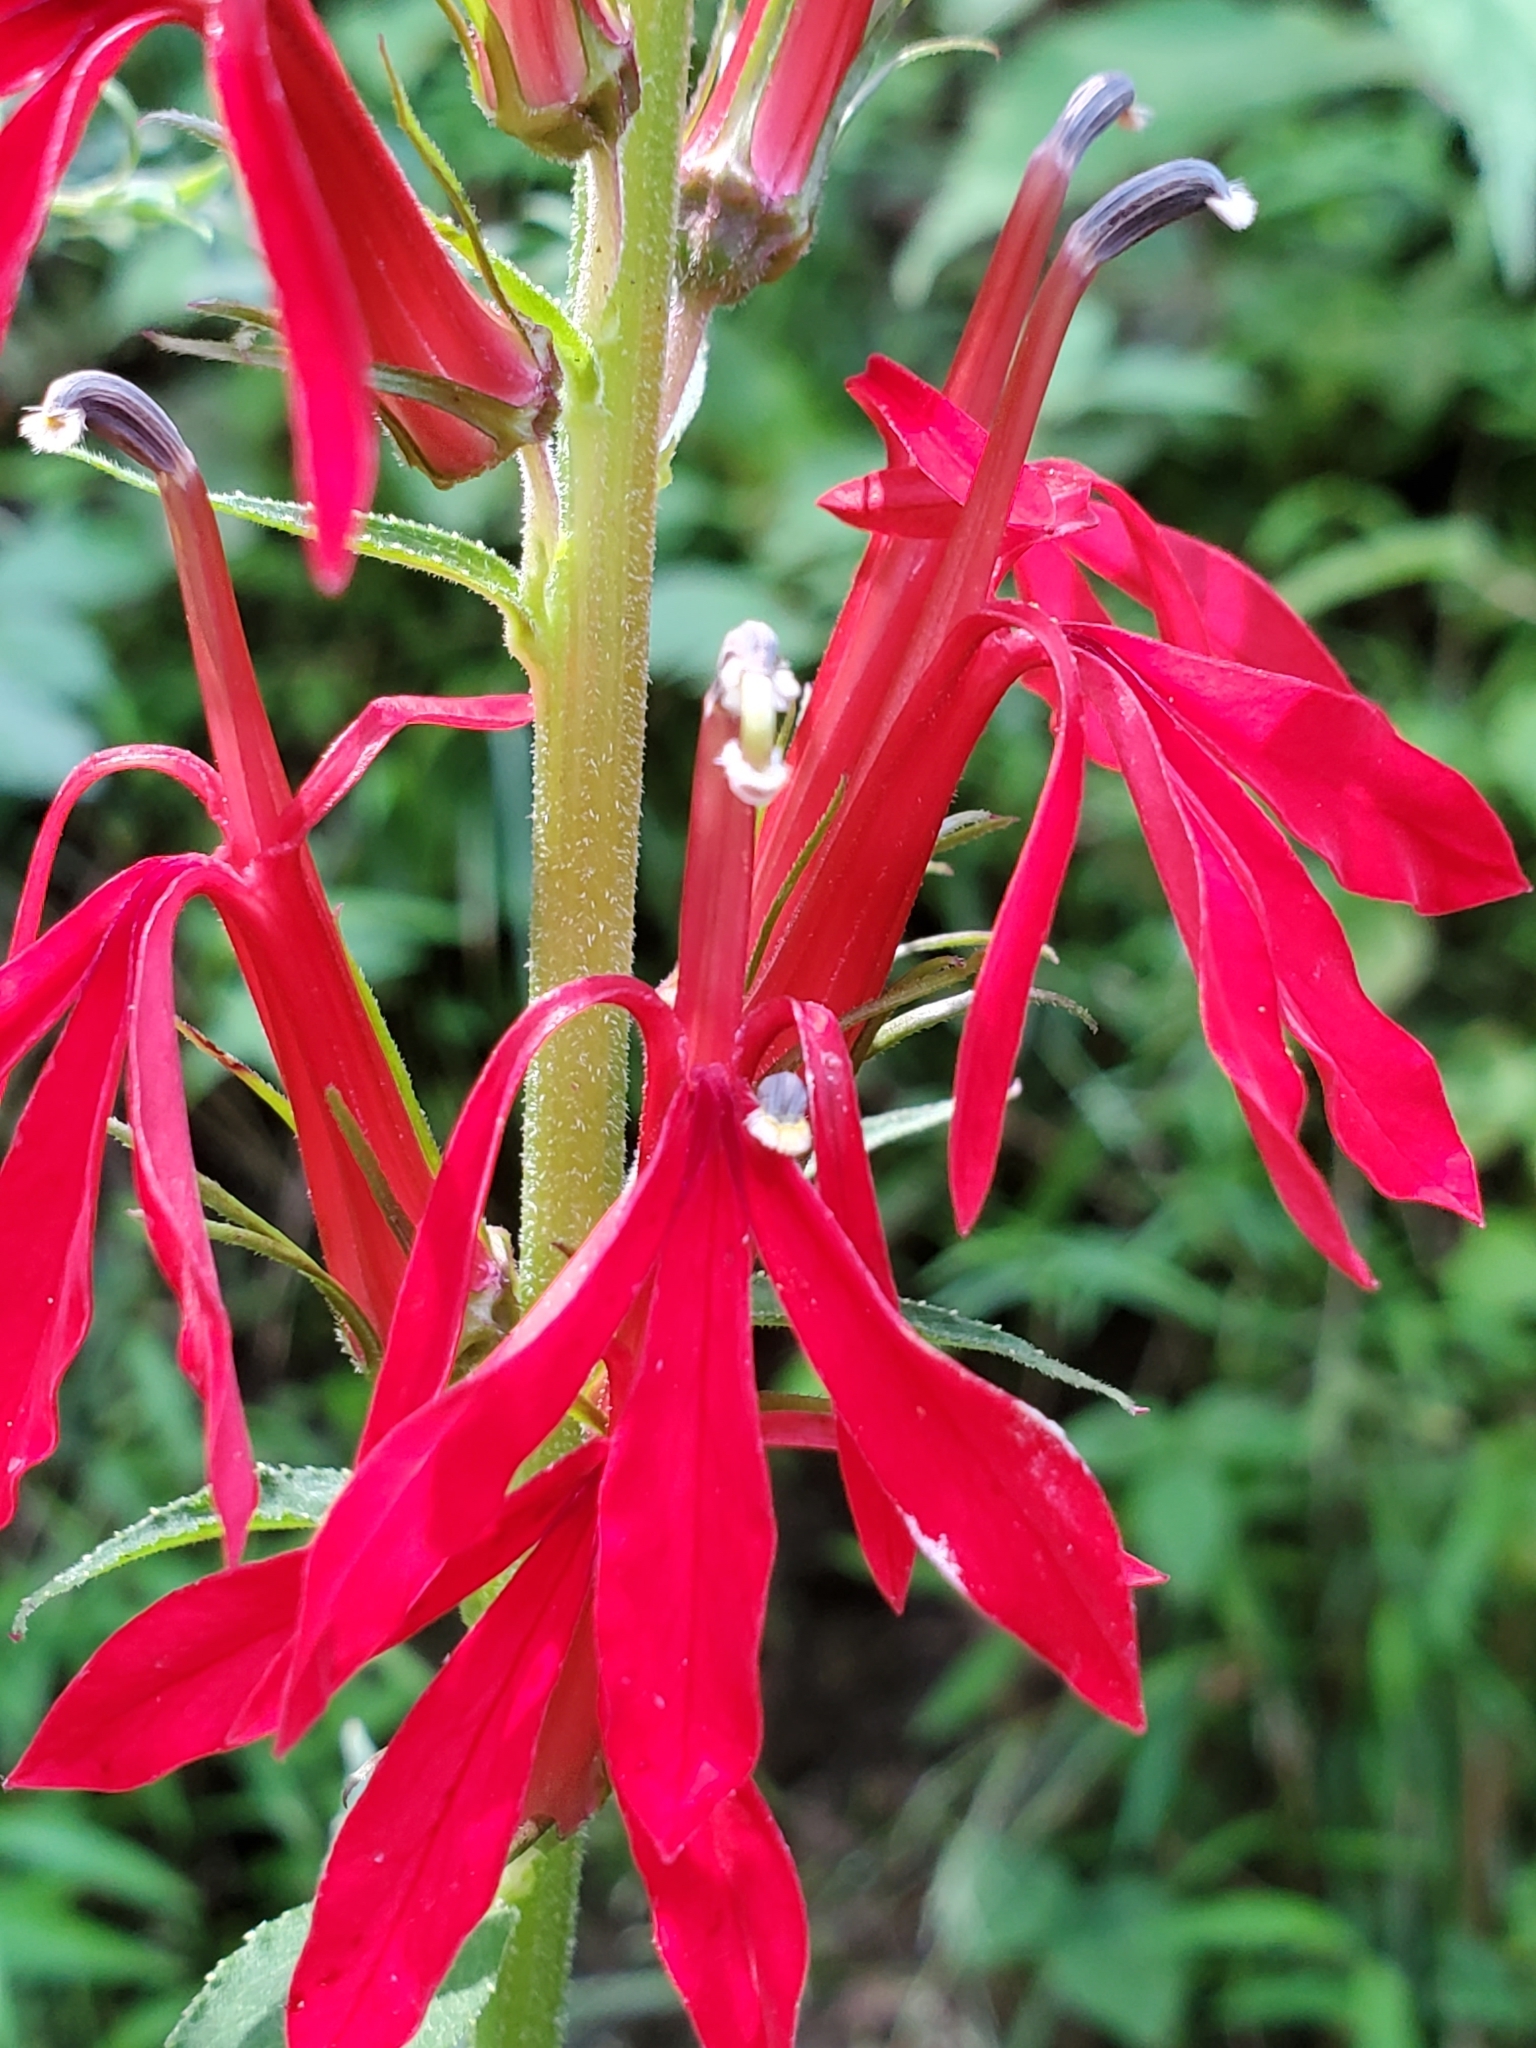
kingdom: Plantae
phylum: Tracheophyta
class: Magnoliopsida
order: Asterales
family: Campanulaceae
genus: Lobelia
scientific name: Lobelia cardinalis
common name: Cardinal flower
